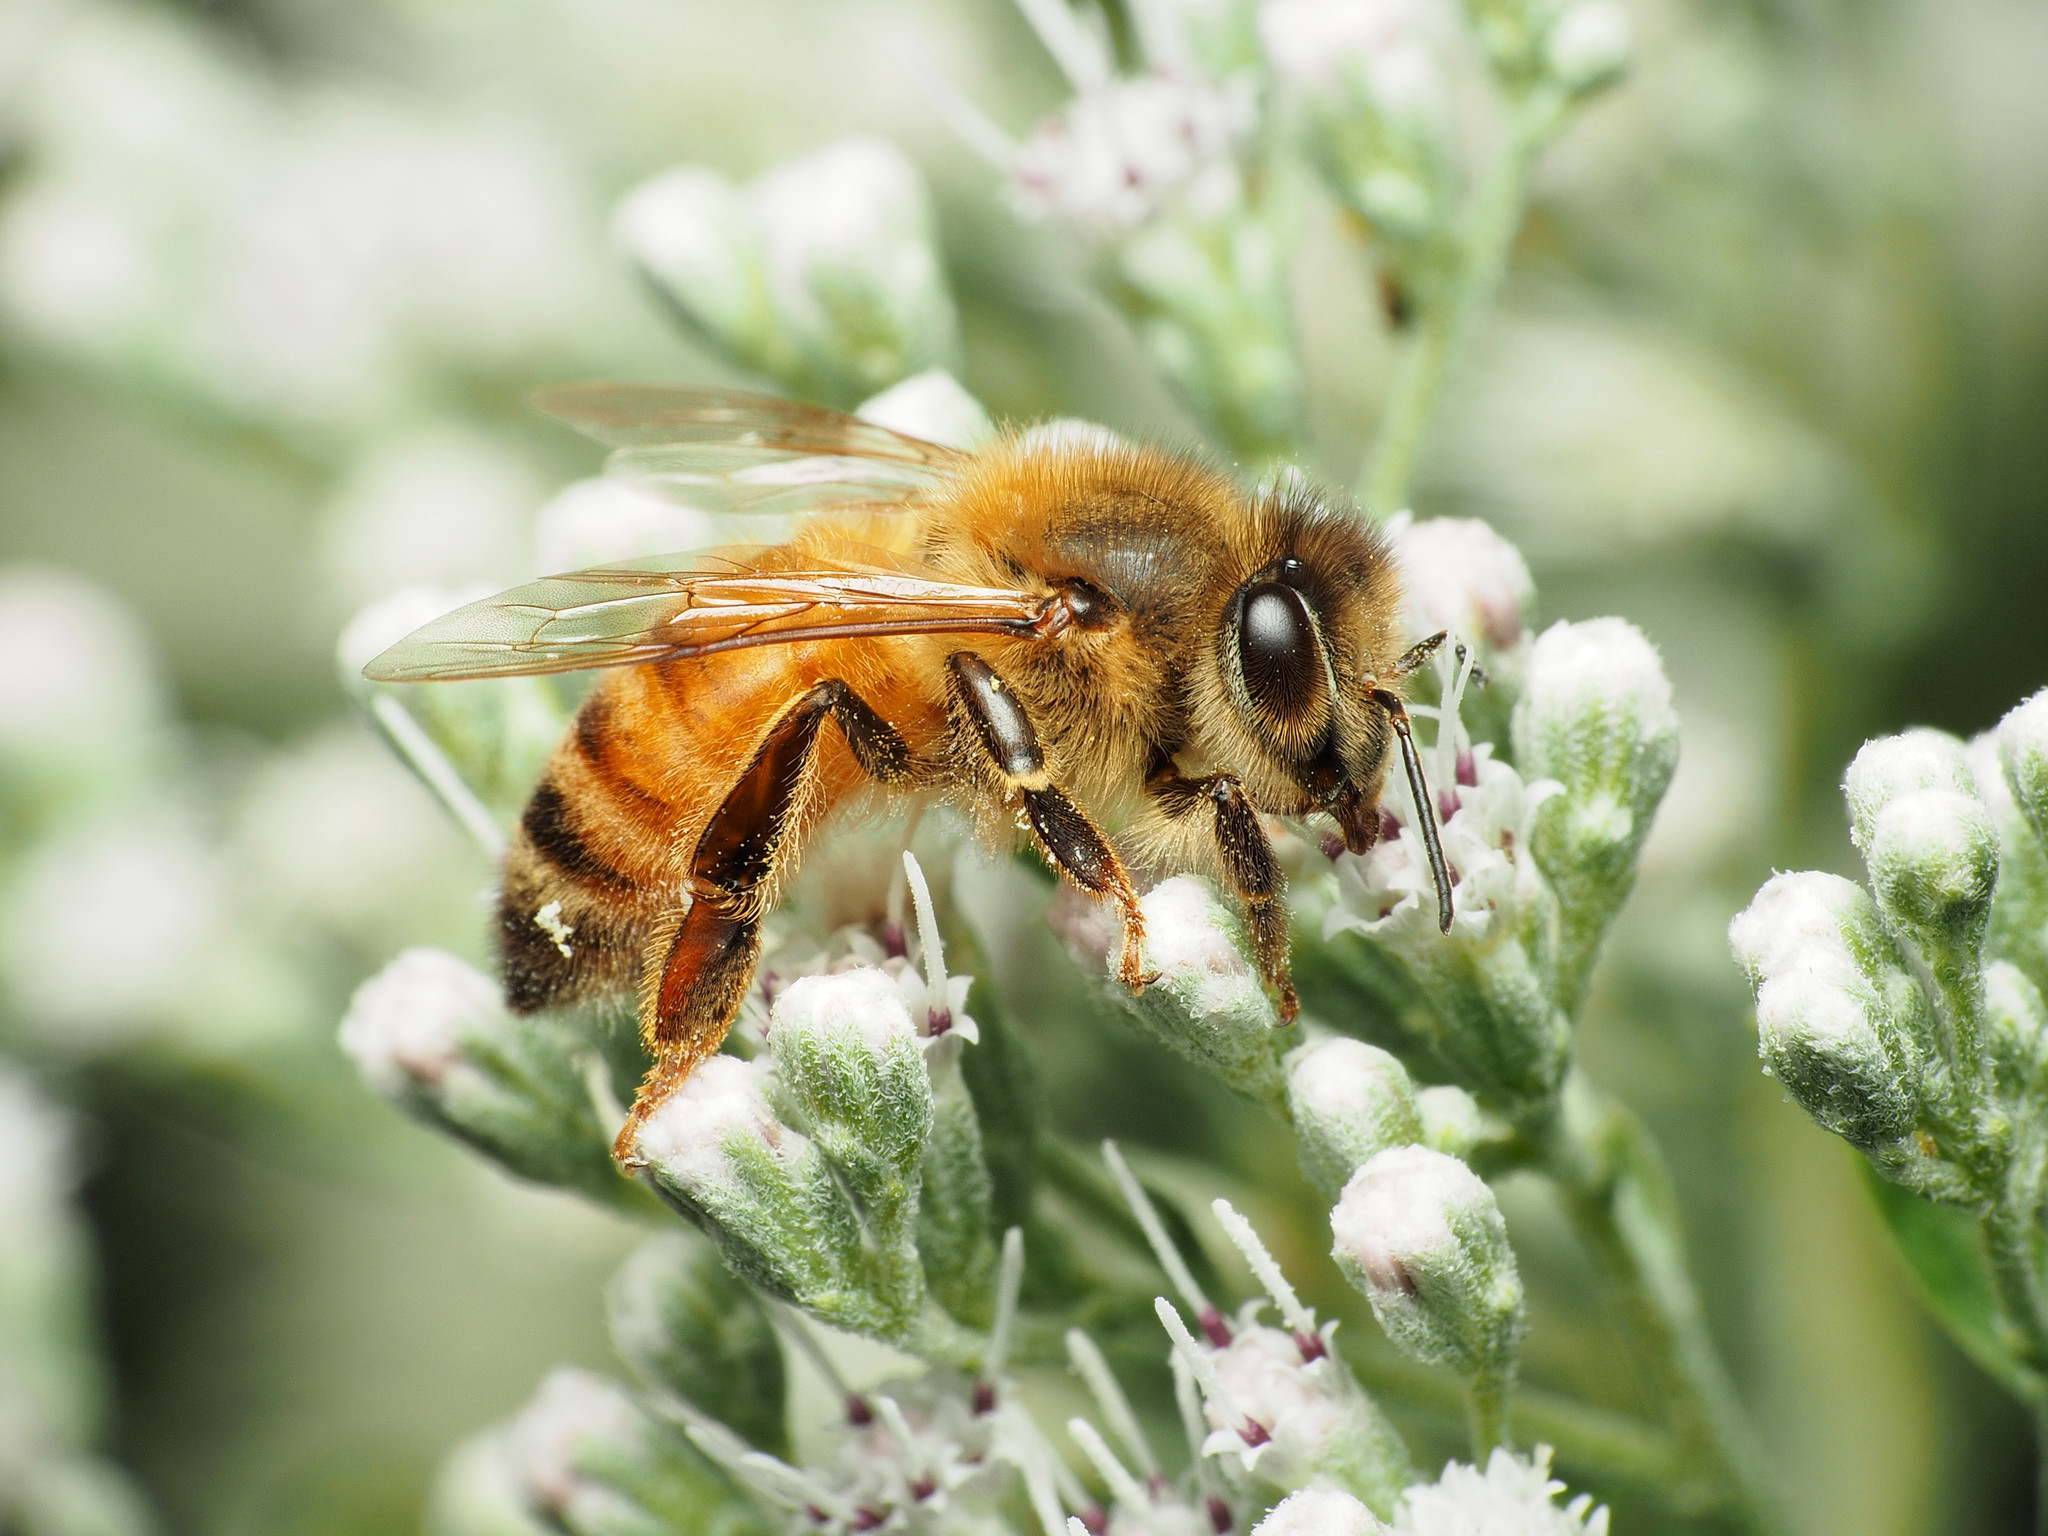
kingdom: Animalia
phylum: Arthropoda
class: Insecta
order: Hymenoptera
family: Apidae
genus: Apis
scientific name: Apis mellifera
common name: Honey bee
